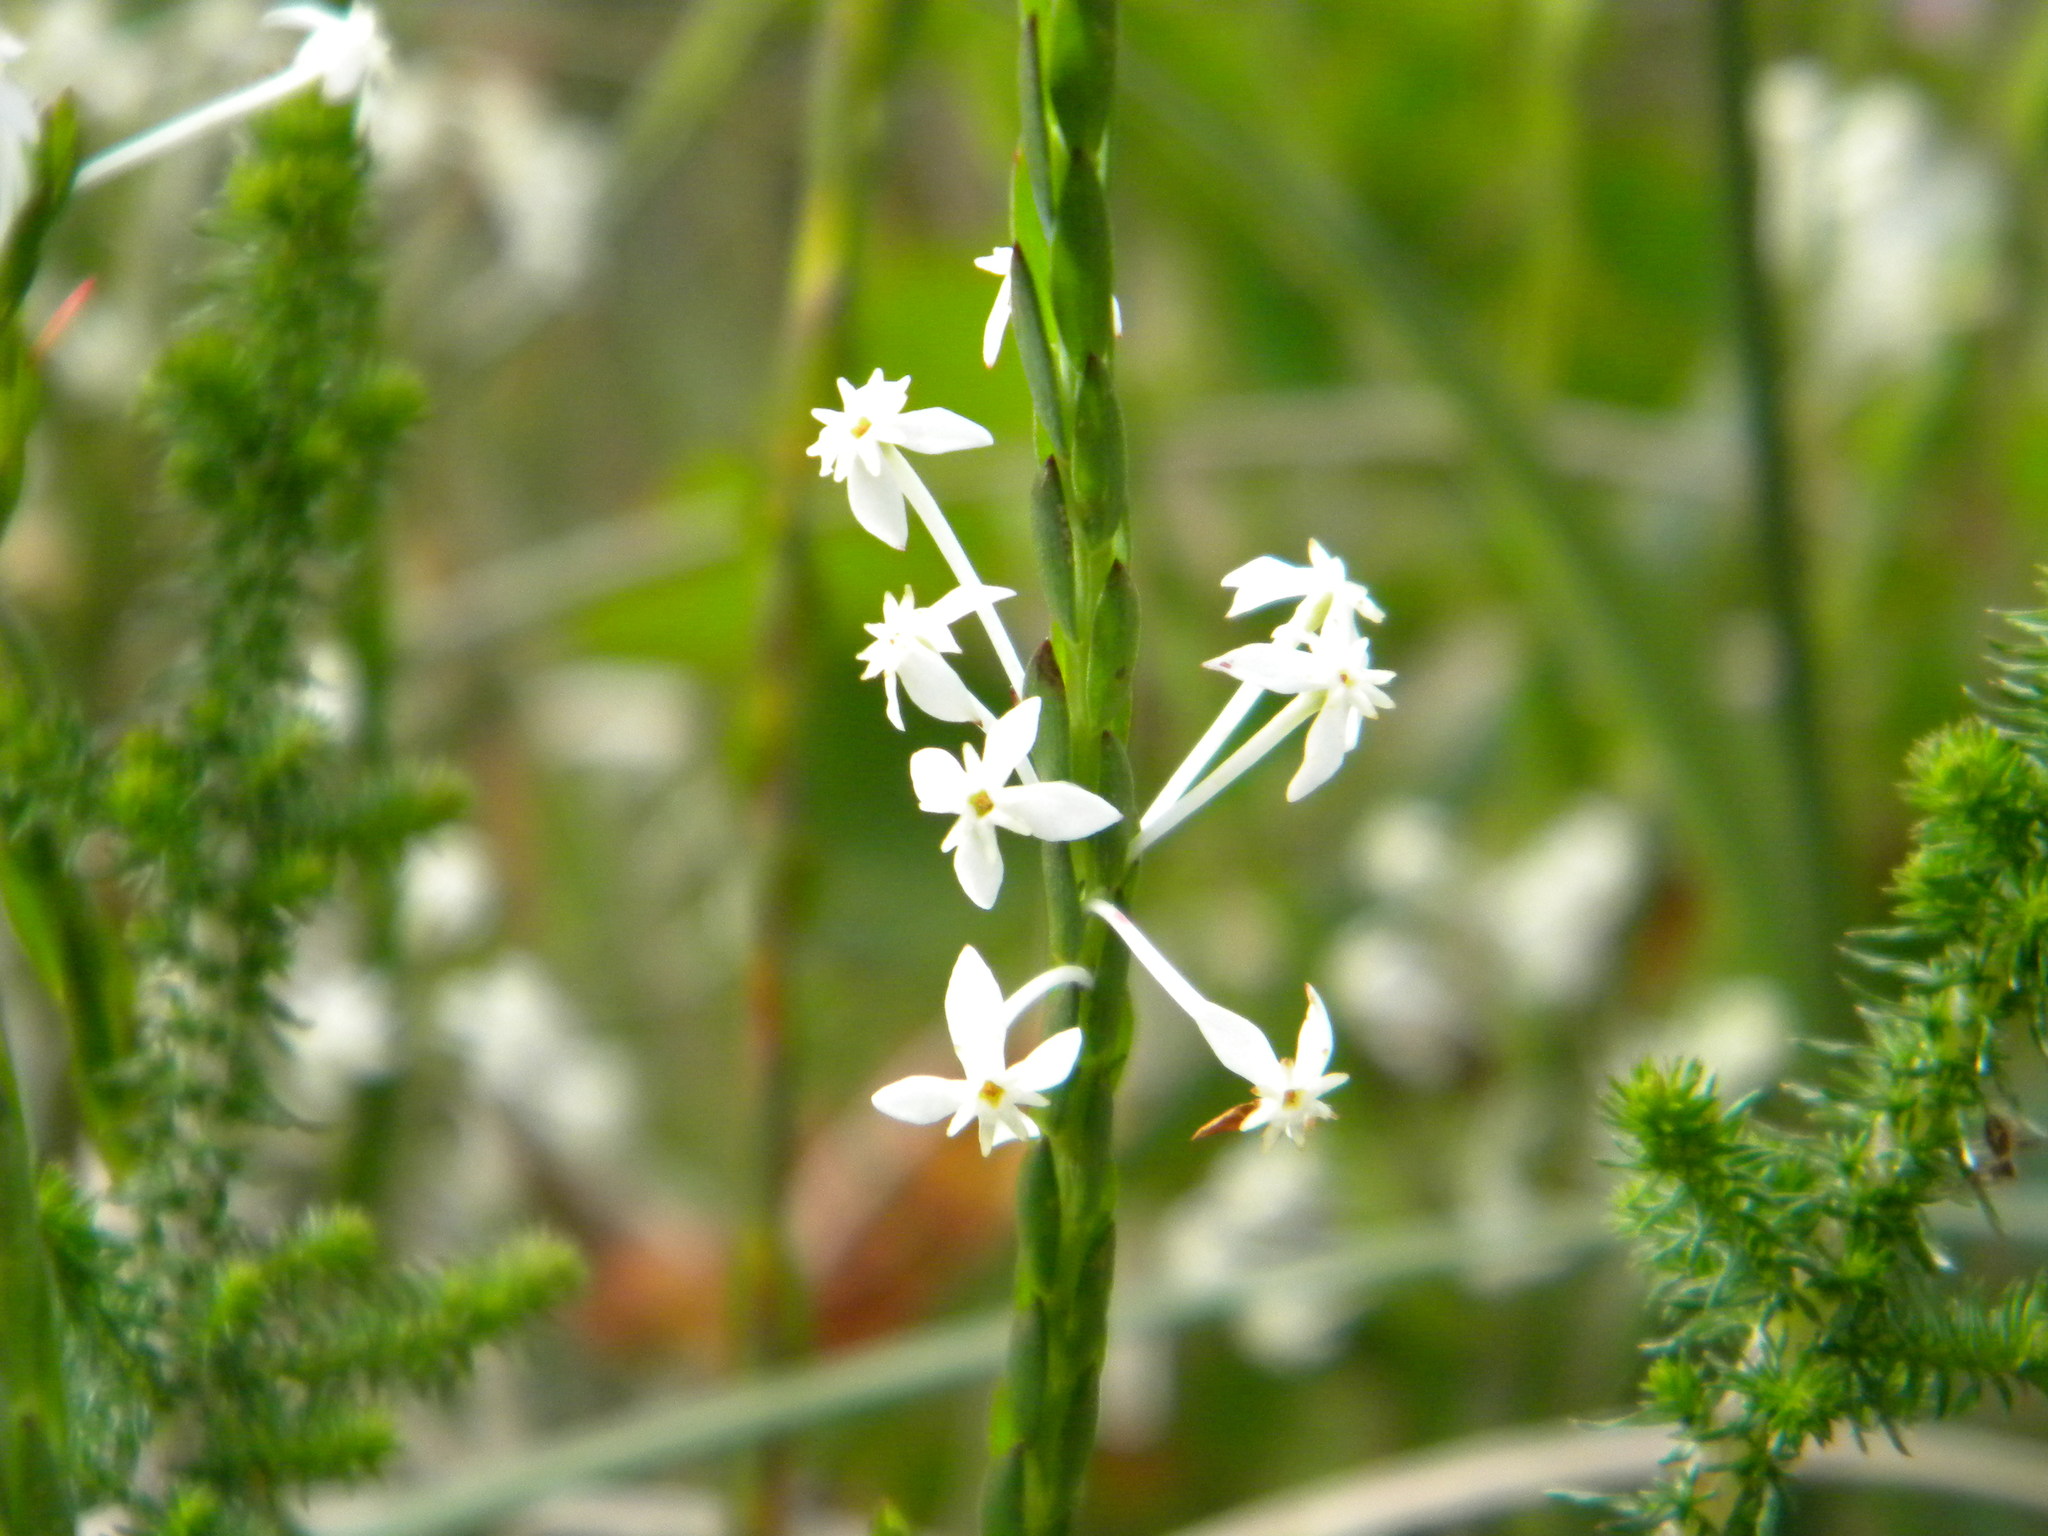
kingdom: Plantae
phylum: Tracheophyta
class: Magnoliopsida
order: Malvales
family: Thymelaeaceae
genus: Struthiola
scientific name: Struthiola myrsinites
